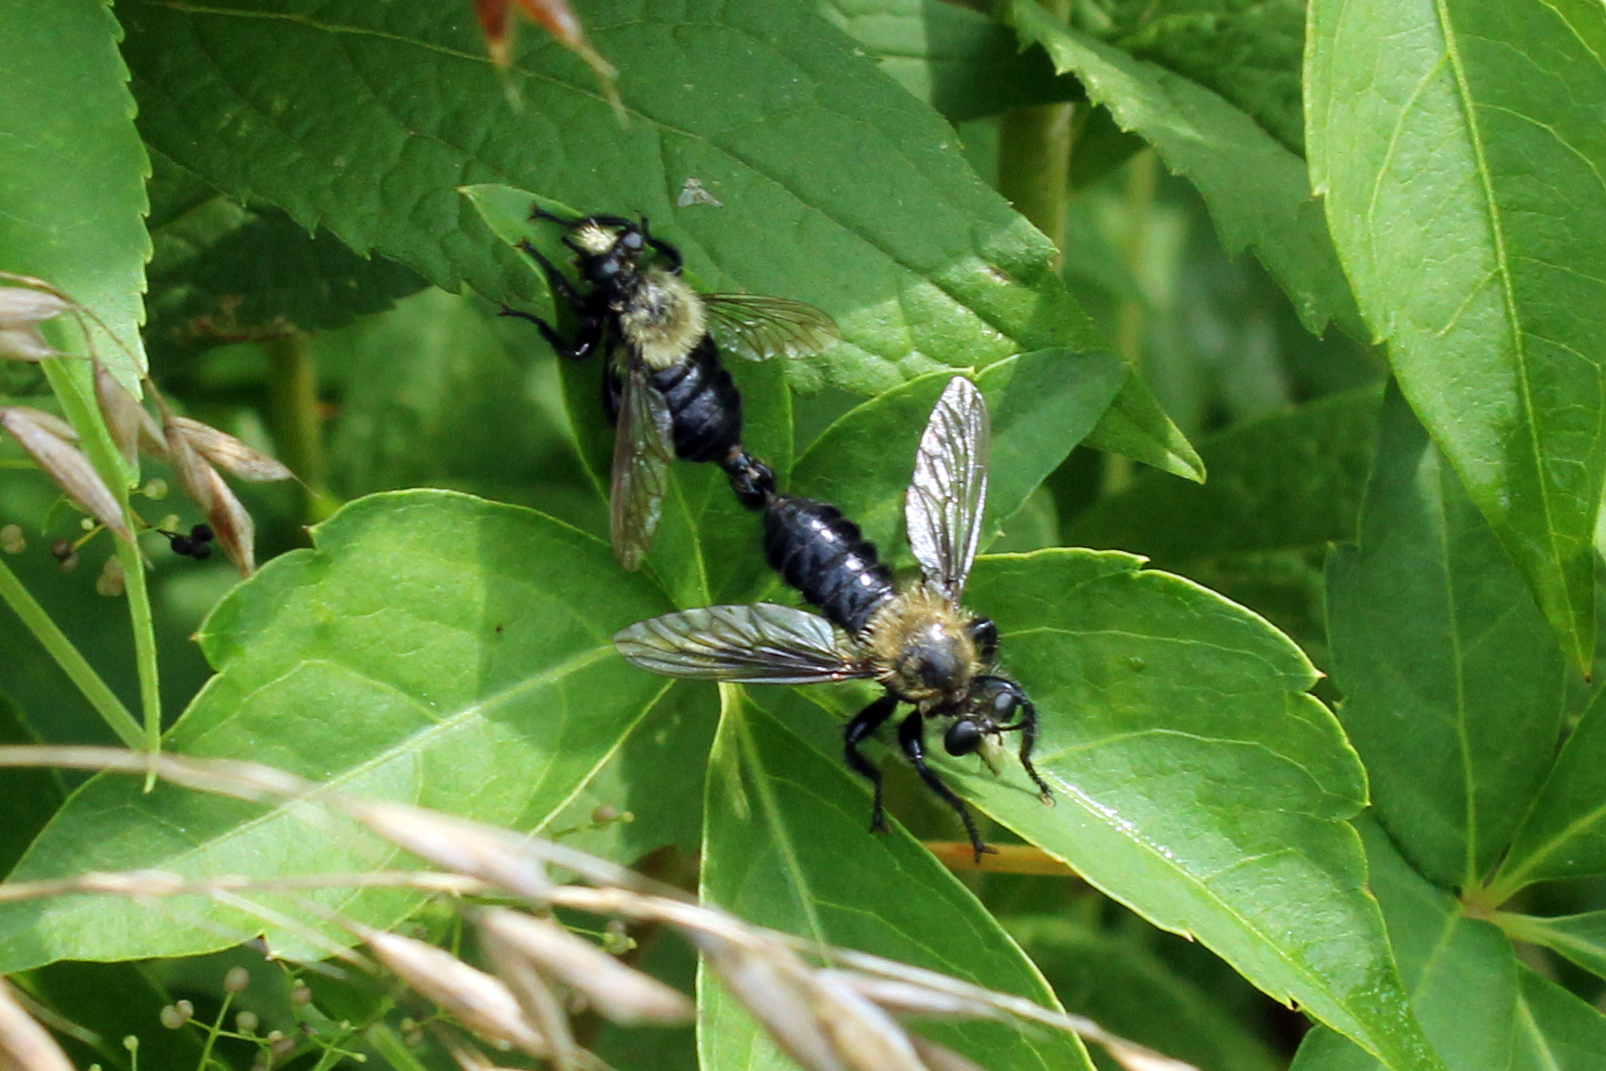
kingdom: Animalia
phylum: Arthropoda
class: Insecta
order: Diptera
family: Asilidae
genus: Laphria
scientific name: Laphria flavicollis
